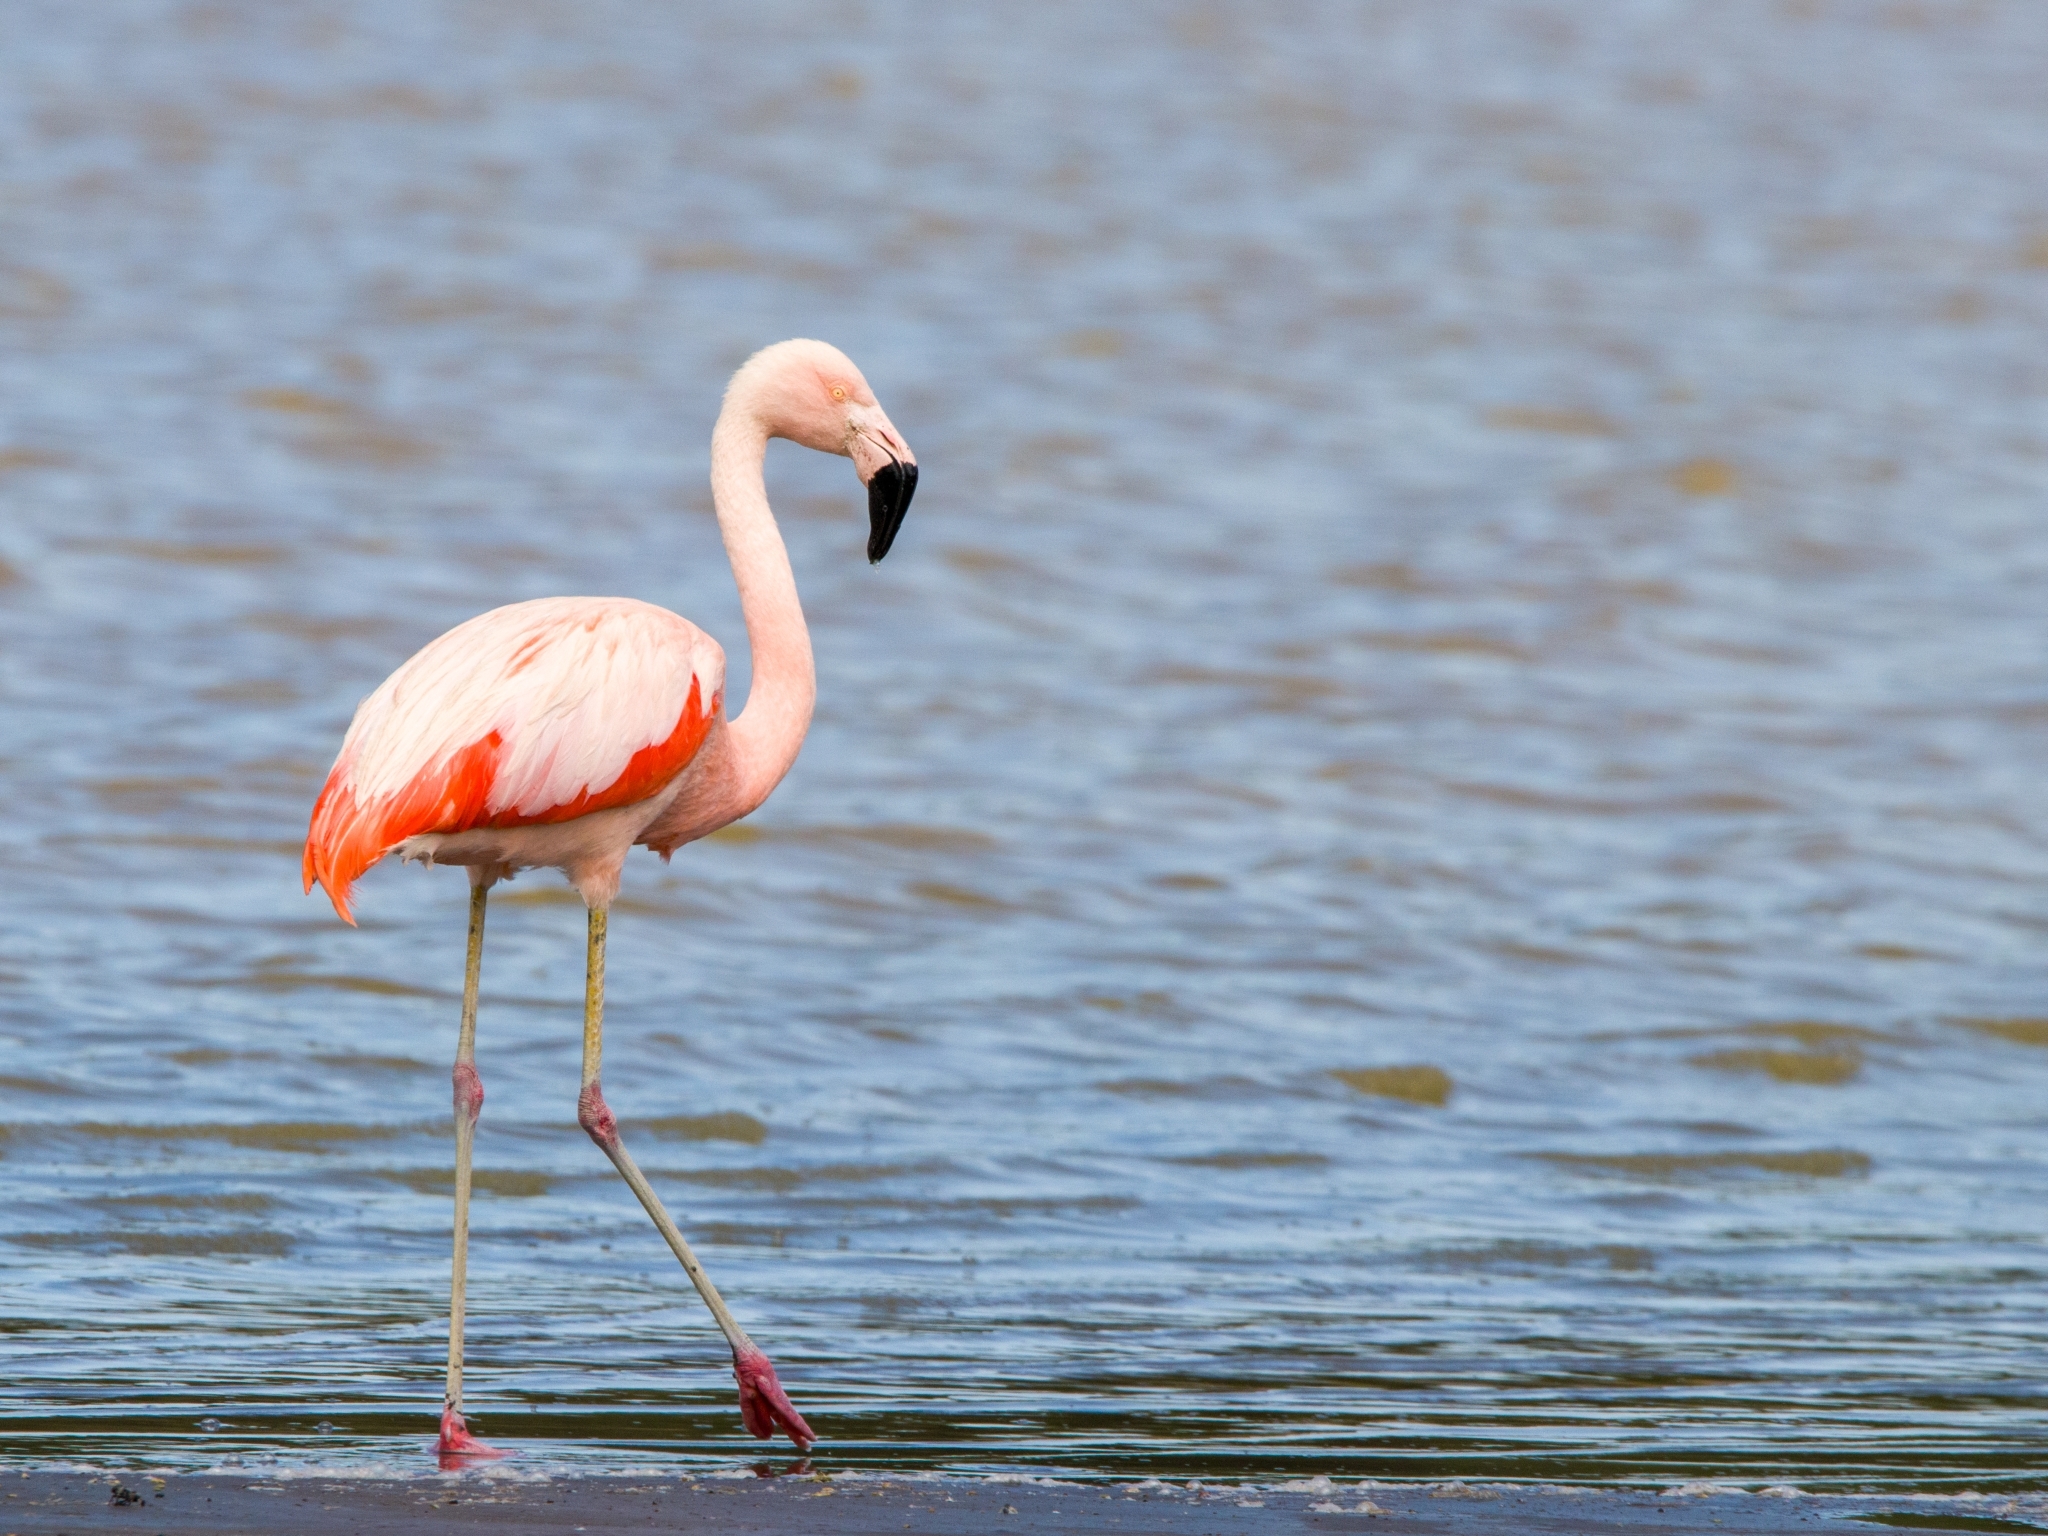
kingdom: Animalia
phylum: Chordata
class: Aves
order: Phoenicopteriformes
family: Phoenicopteridae
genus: Phoenicopterus
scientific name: Phoenicopterus chilensis
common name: Chilean flamingo
